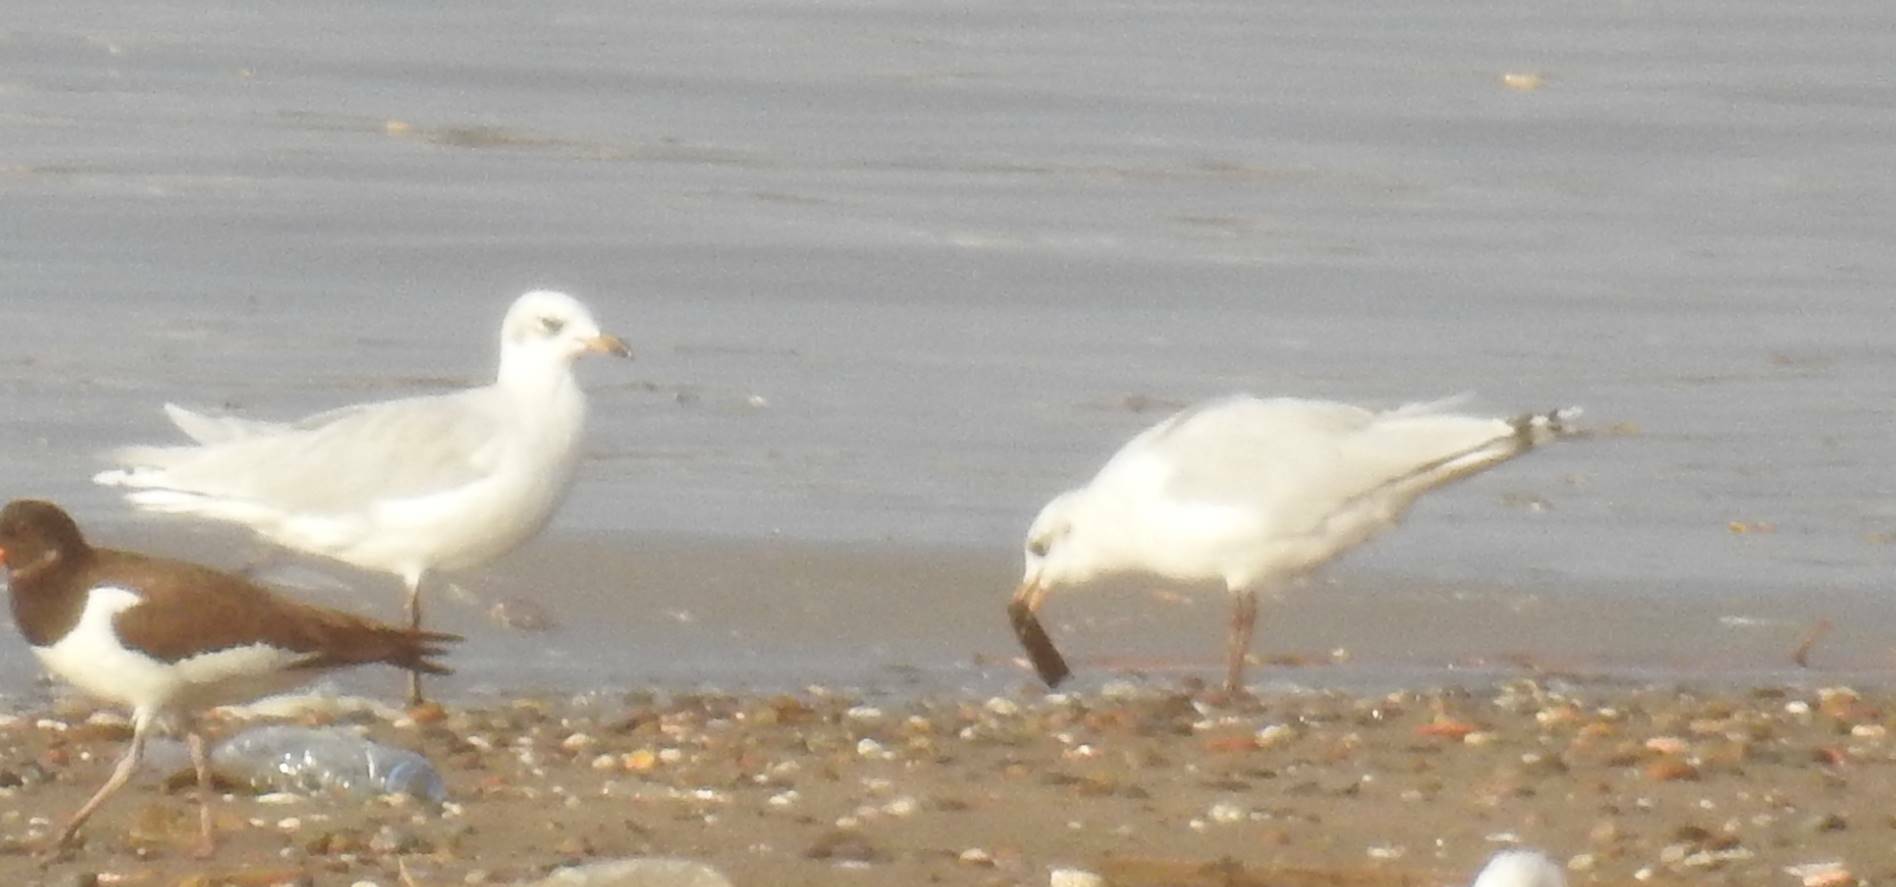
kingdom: Animalia
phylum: Chordata
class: Aves
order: Charadriiformes
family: Laridae
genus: Ichthyaetus
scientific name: Ichthyaetus melanocephalus
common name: Mediterranean gull
